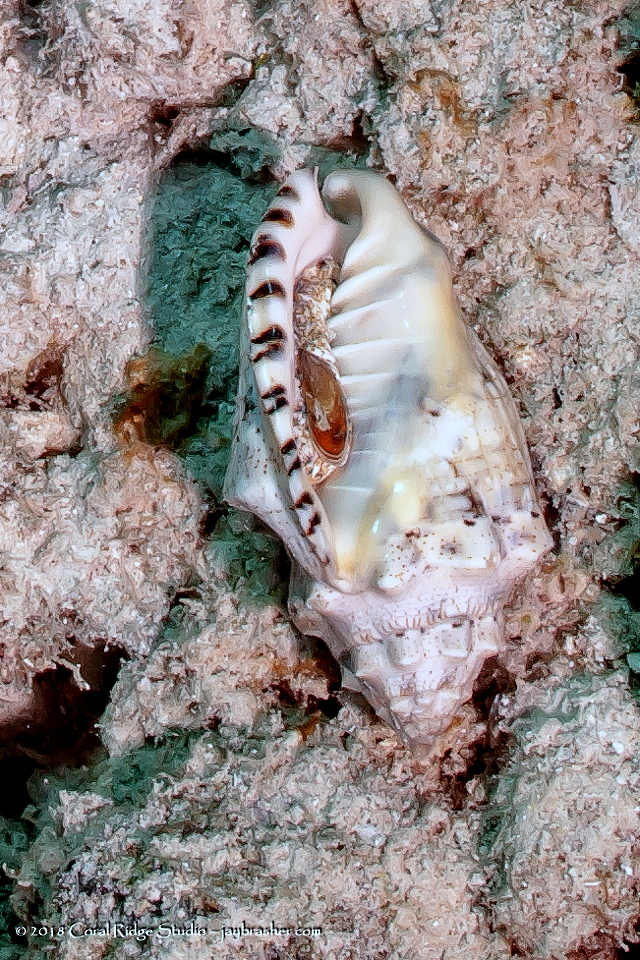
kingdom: Animalia
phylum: Mollusca
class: Gastropoda
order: Neogastropoda
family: Volutidae
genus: Voluta
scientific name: Voluta musica
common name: Music volute
